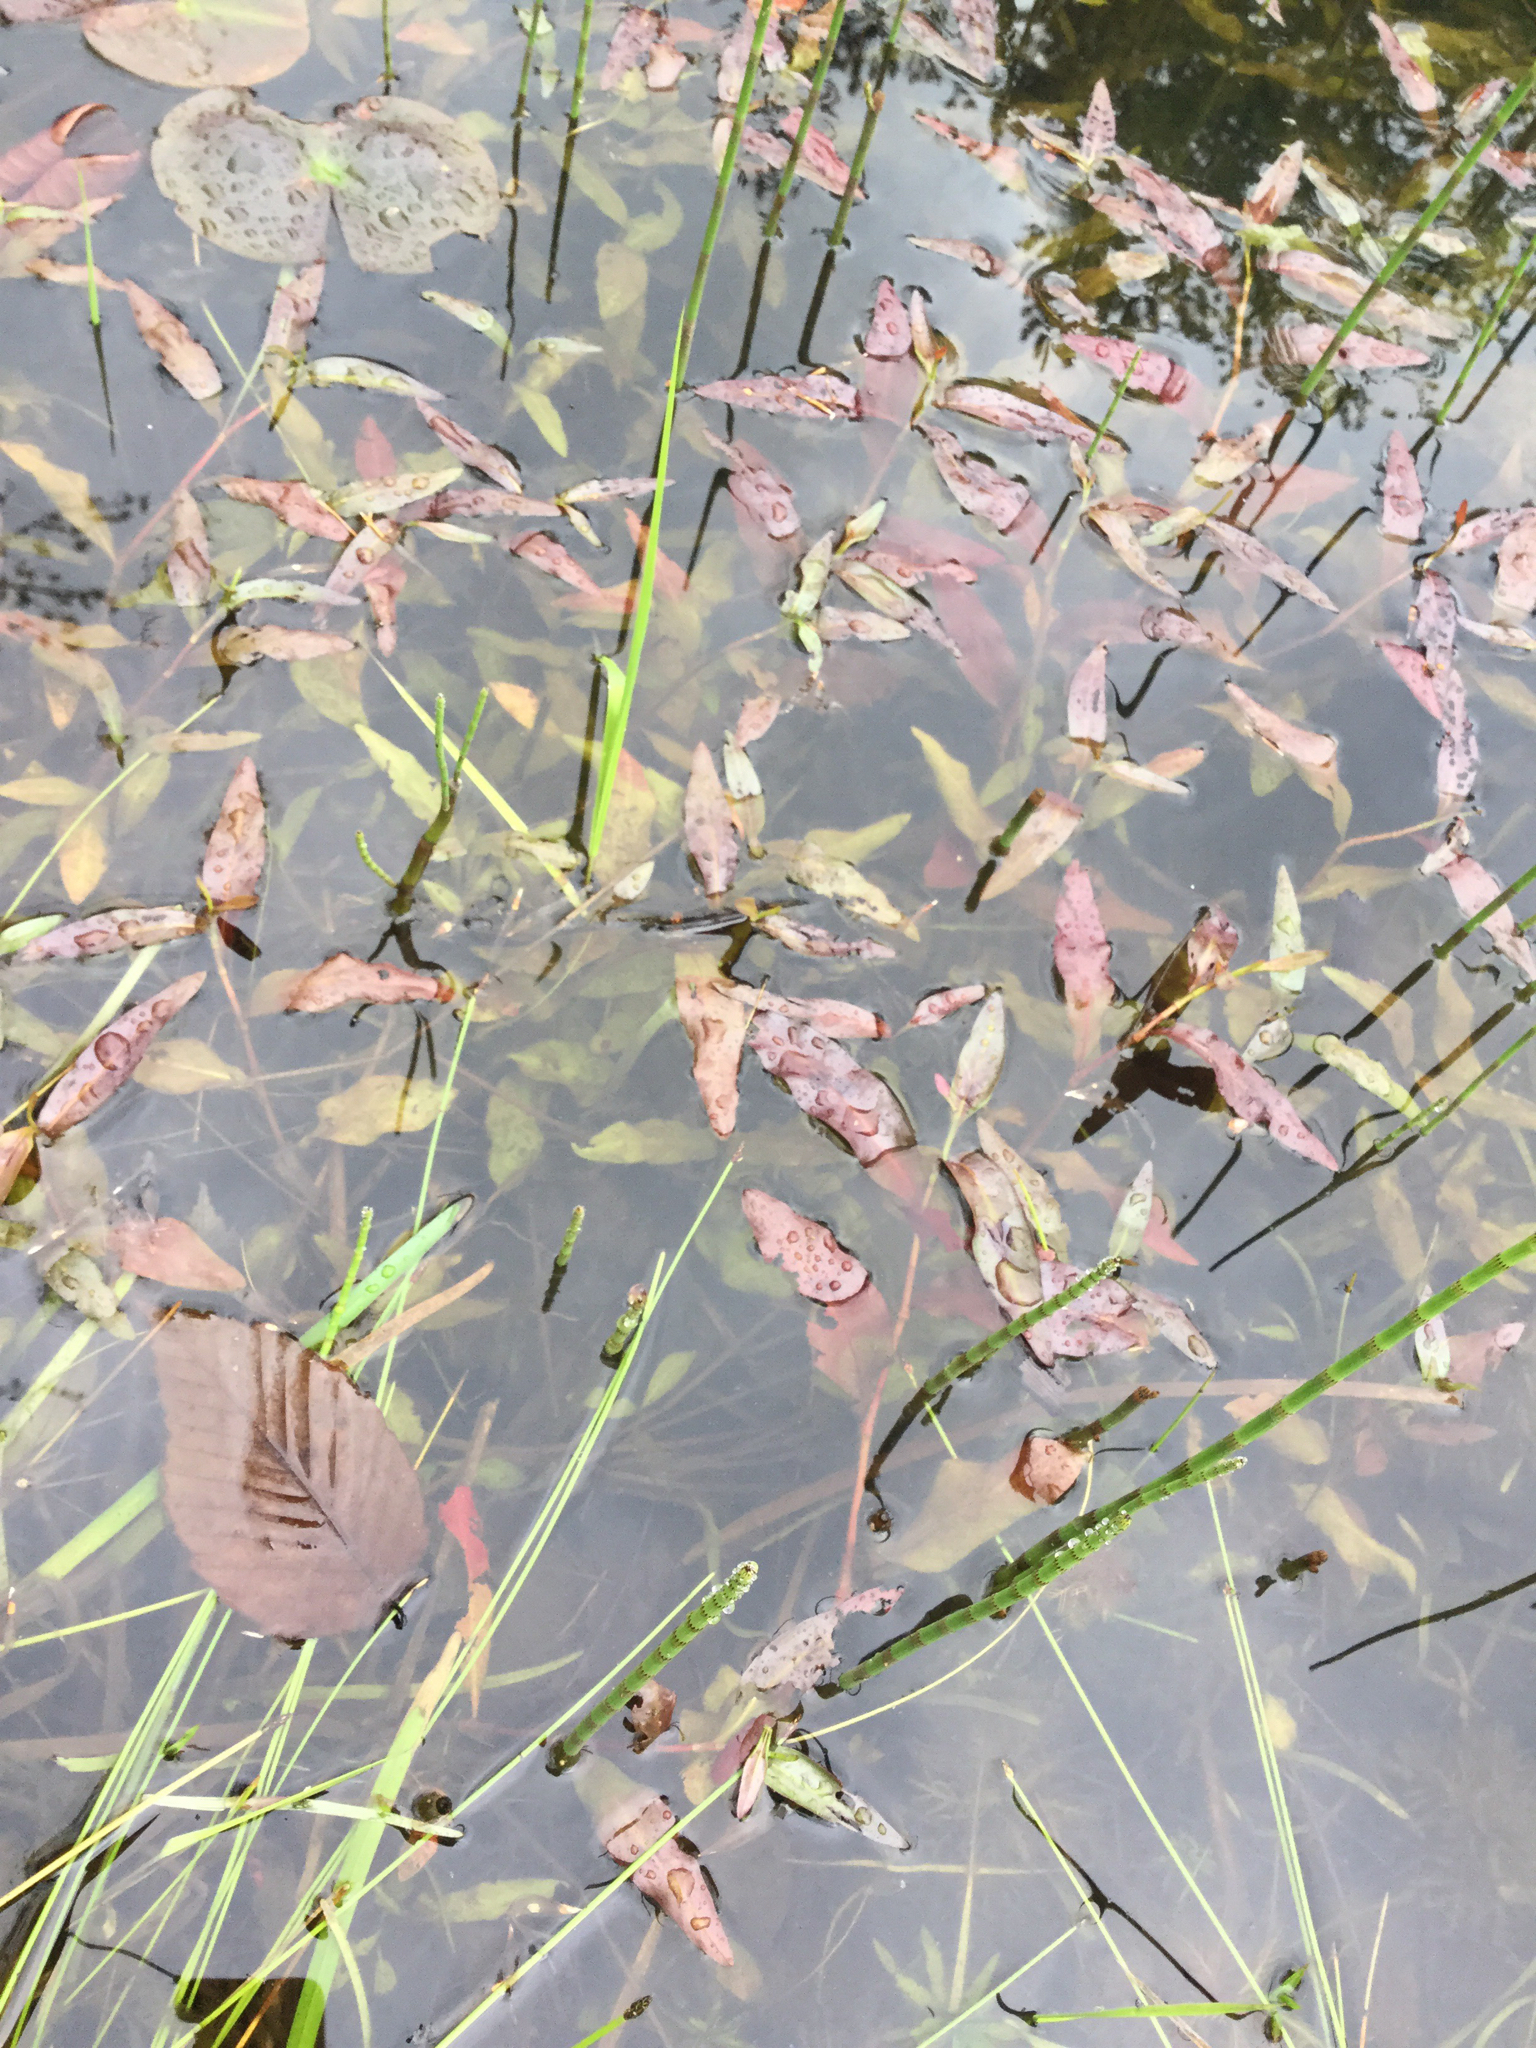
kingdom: Plantae
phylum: Tracheophyta
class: Magnoliopsida
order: Caryophyllales
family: Polygonaceae
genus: Persicaria
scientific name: Persicaria amphibia
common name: Amphibious bistort
